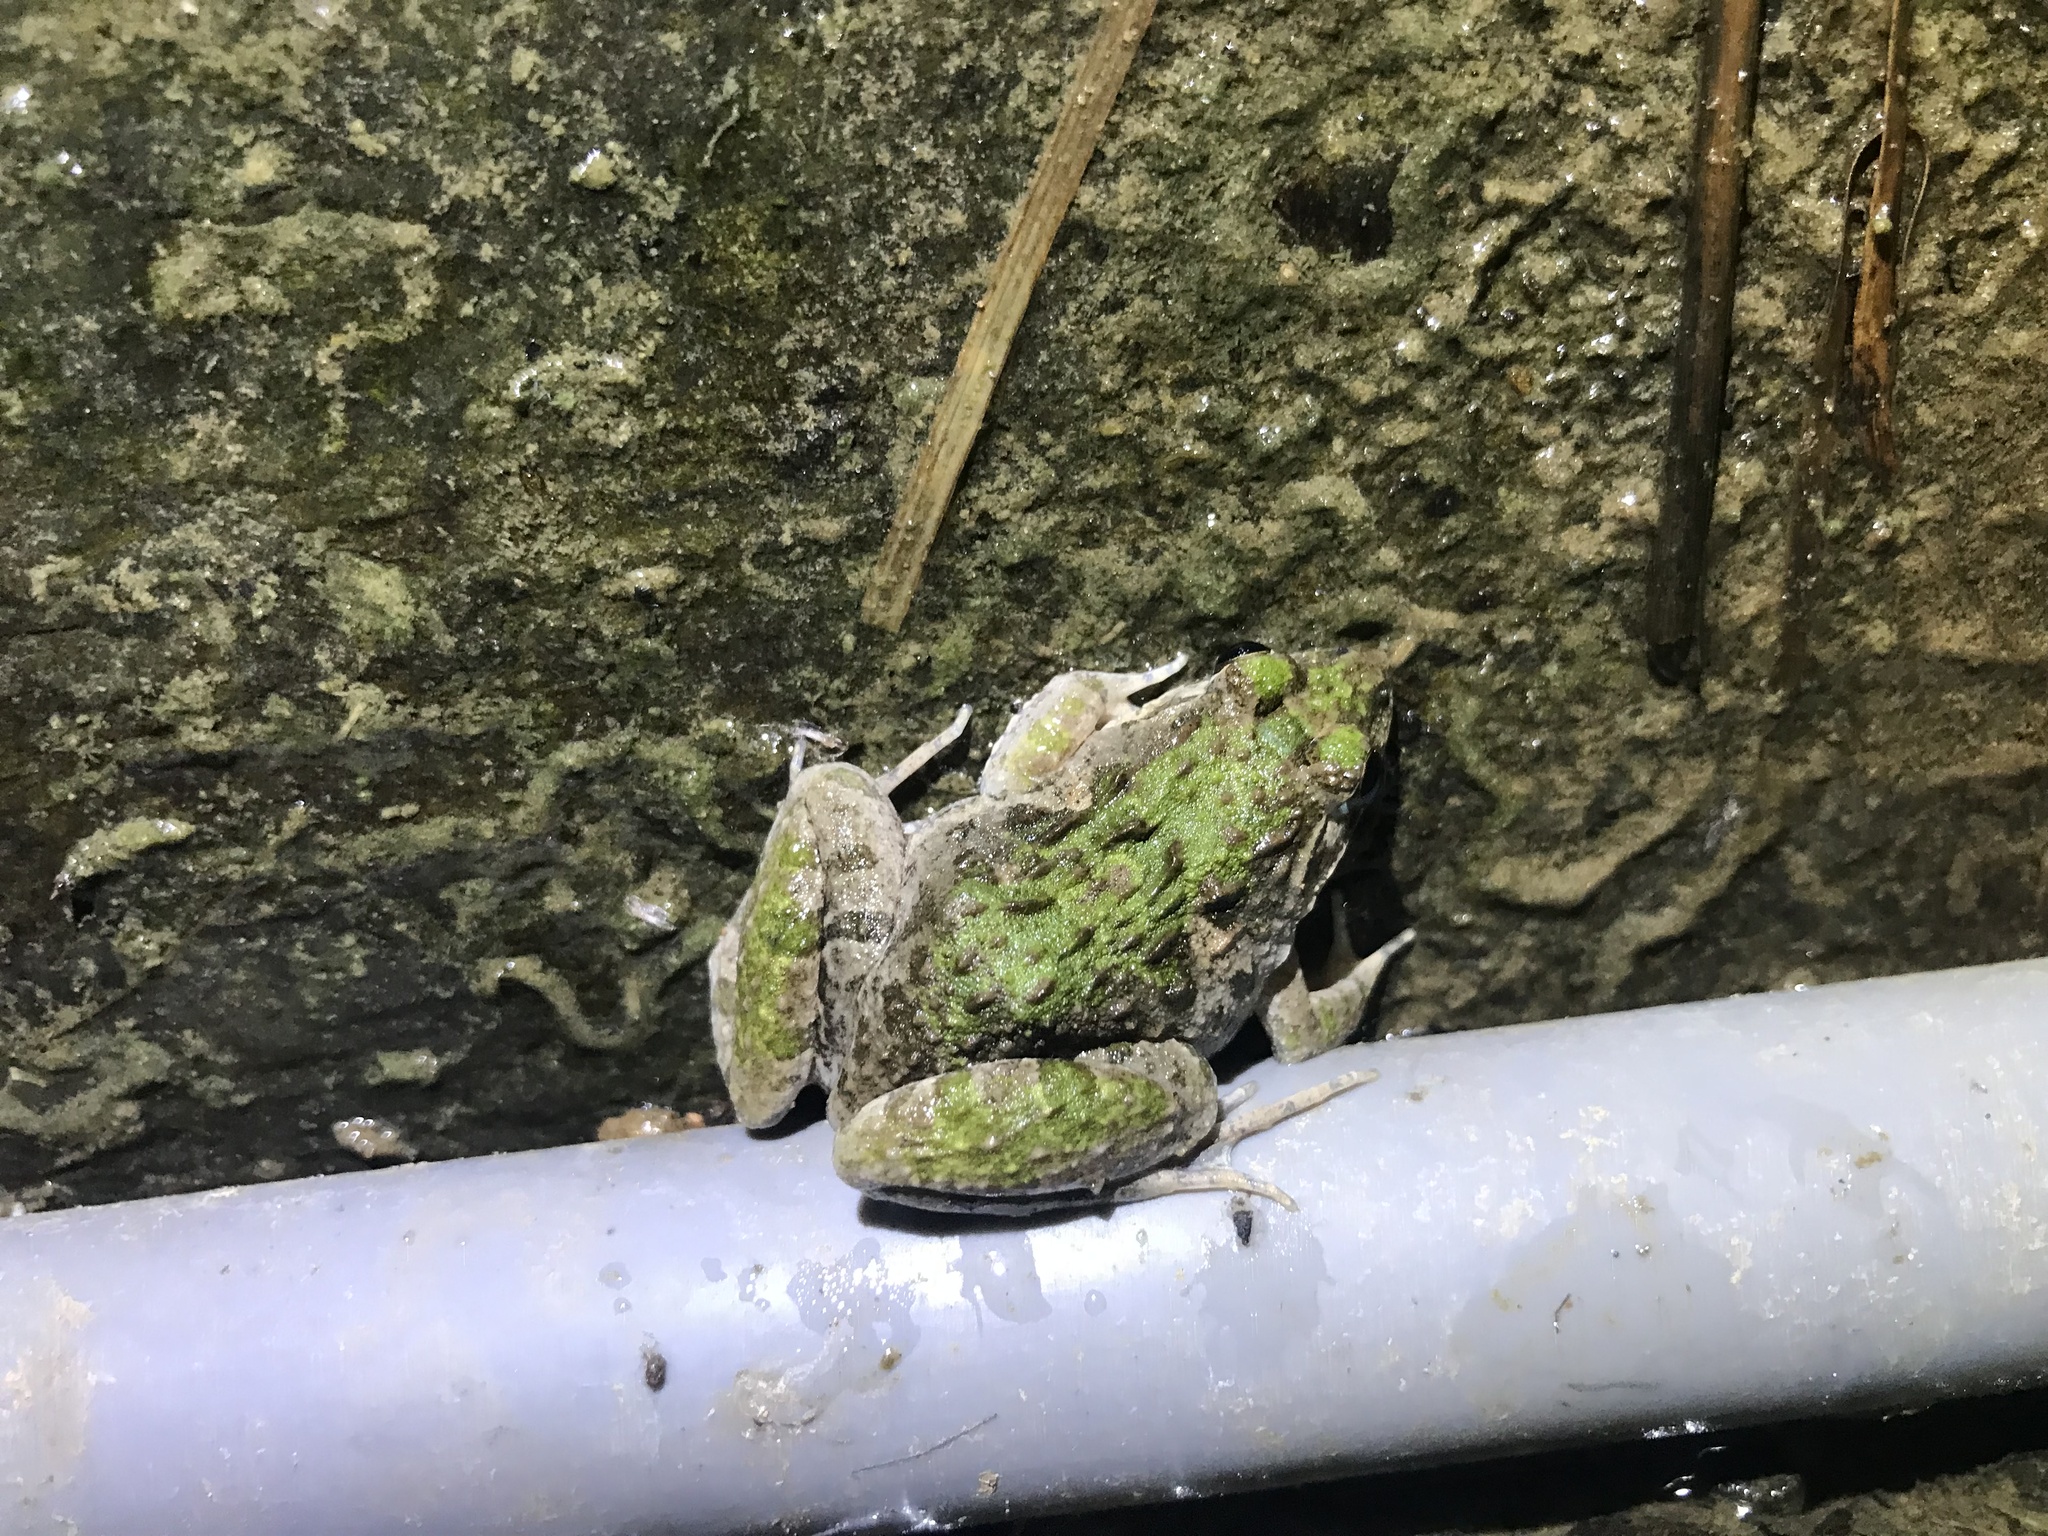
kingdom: Animalia
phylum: Chordata
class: Amphibia
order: Anura
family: Dicroglossidae
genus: Fejervarya
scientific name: Fejervarya limnocharis
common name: Asian grass frog/common pond frog/field frog/grass frog/indian rice frog
